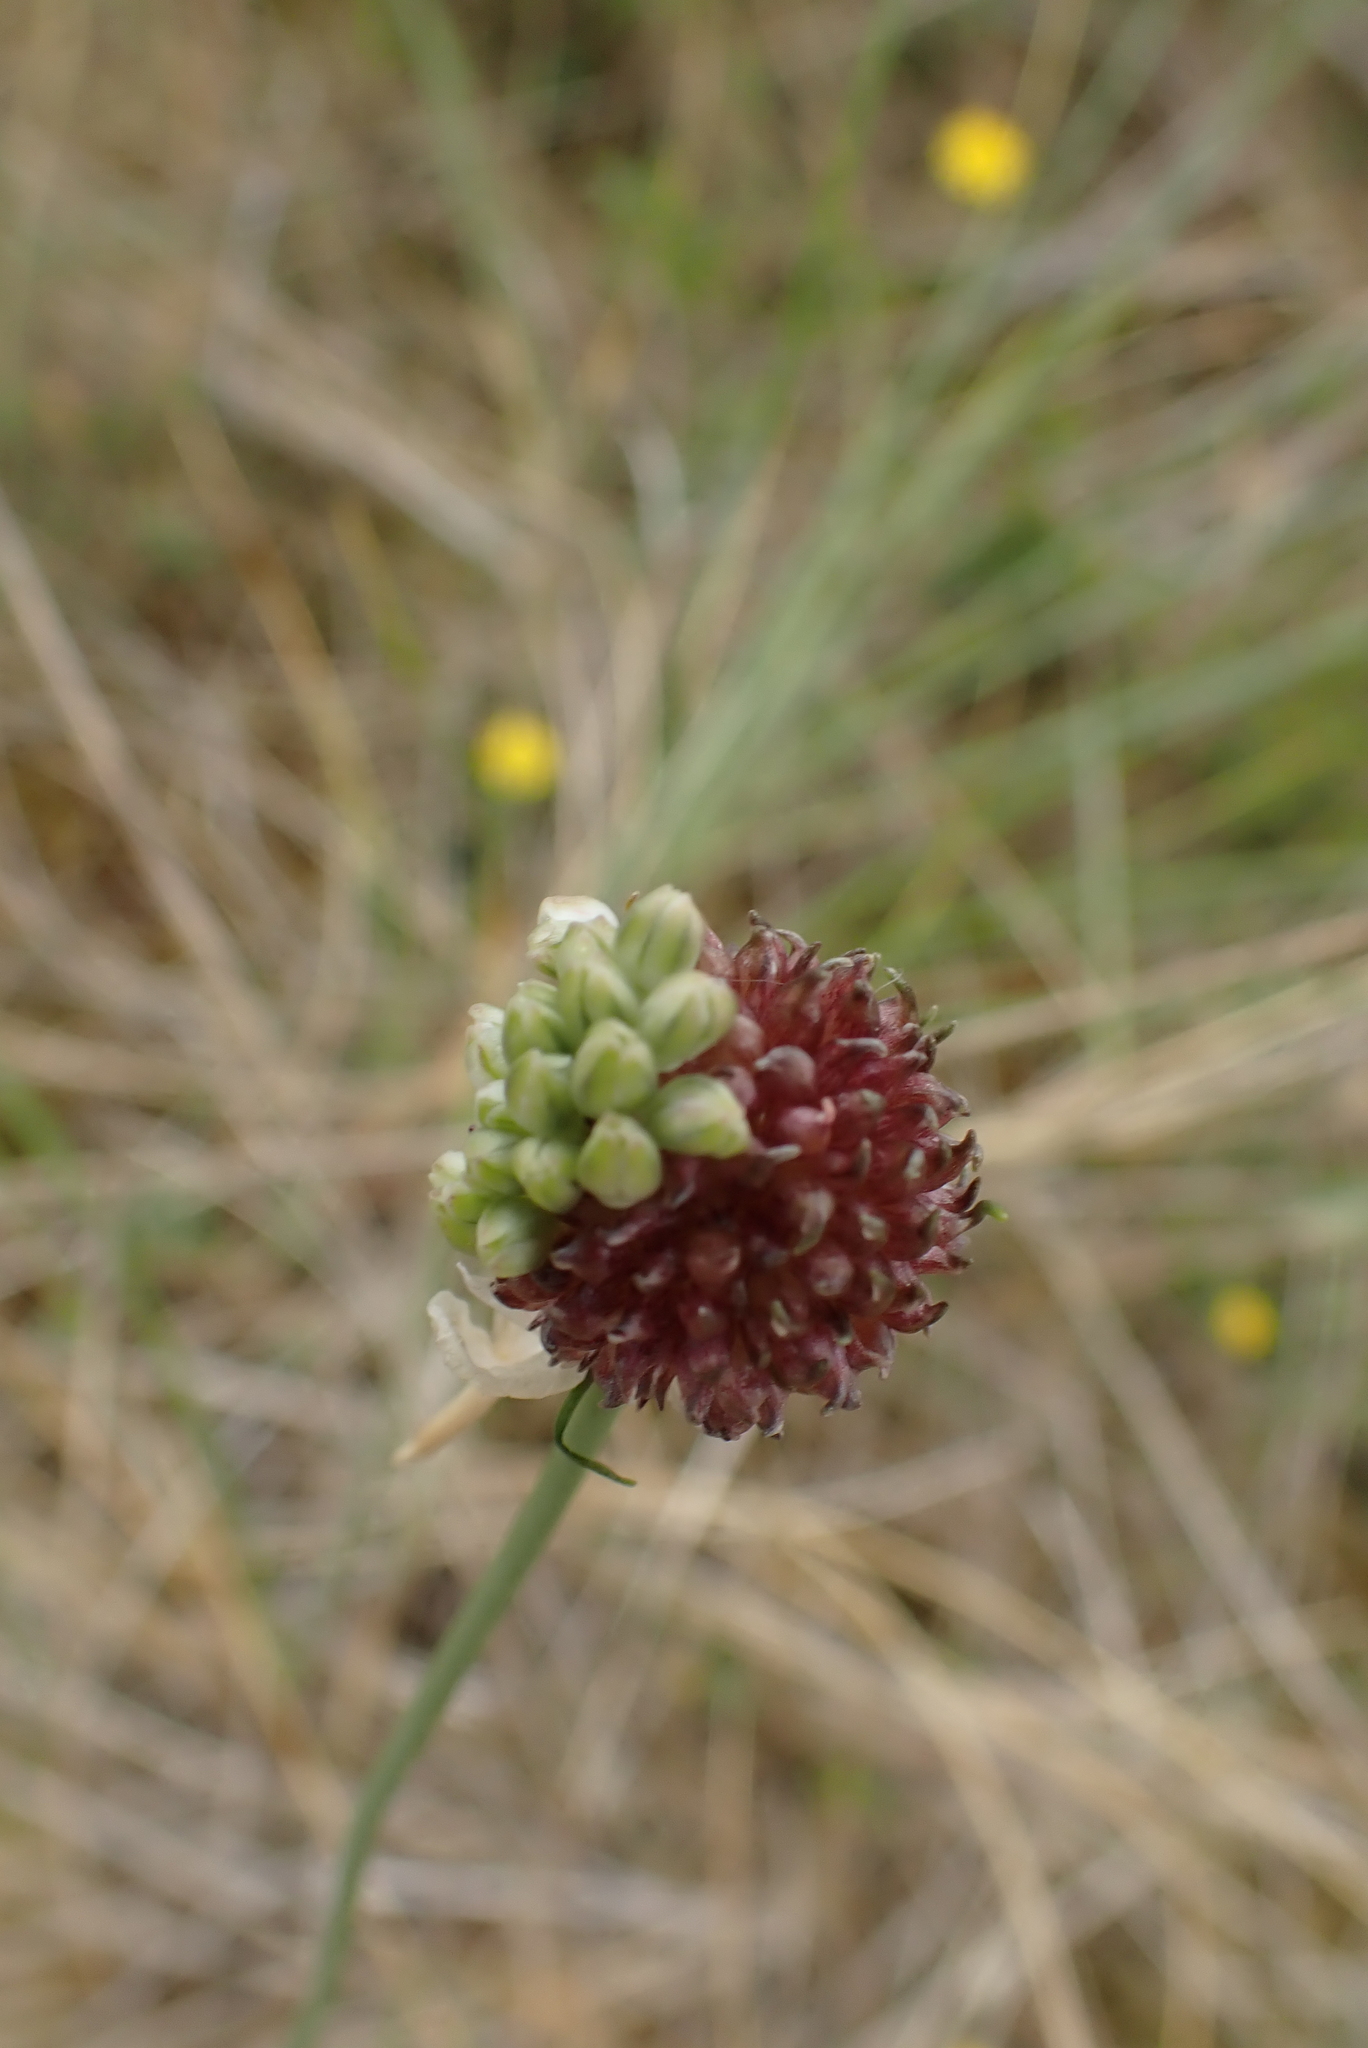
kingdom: Plantae
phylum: Tracheophyta
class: Liliopsida
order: Asparagales
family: Amaryllidaceae
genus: Allium
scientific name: Allium vineale
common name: Crow garlic
